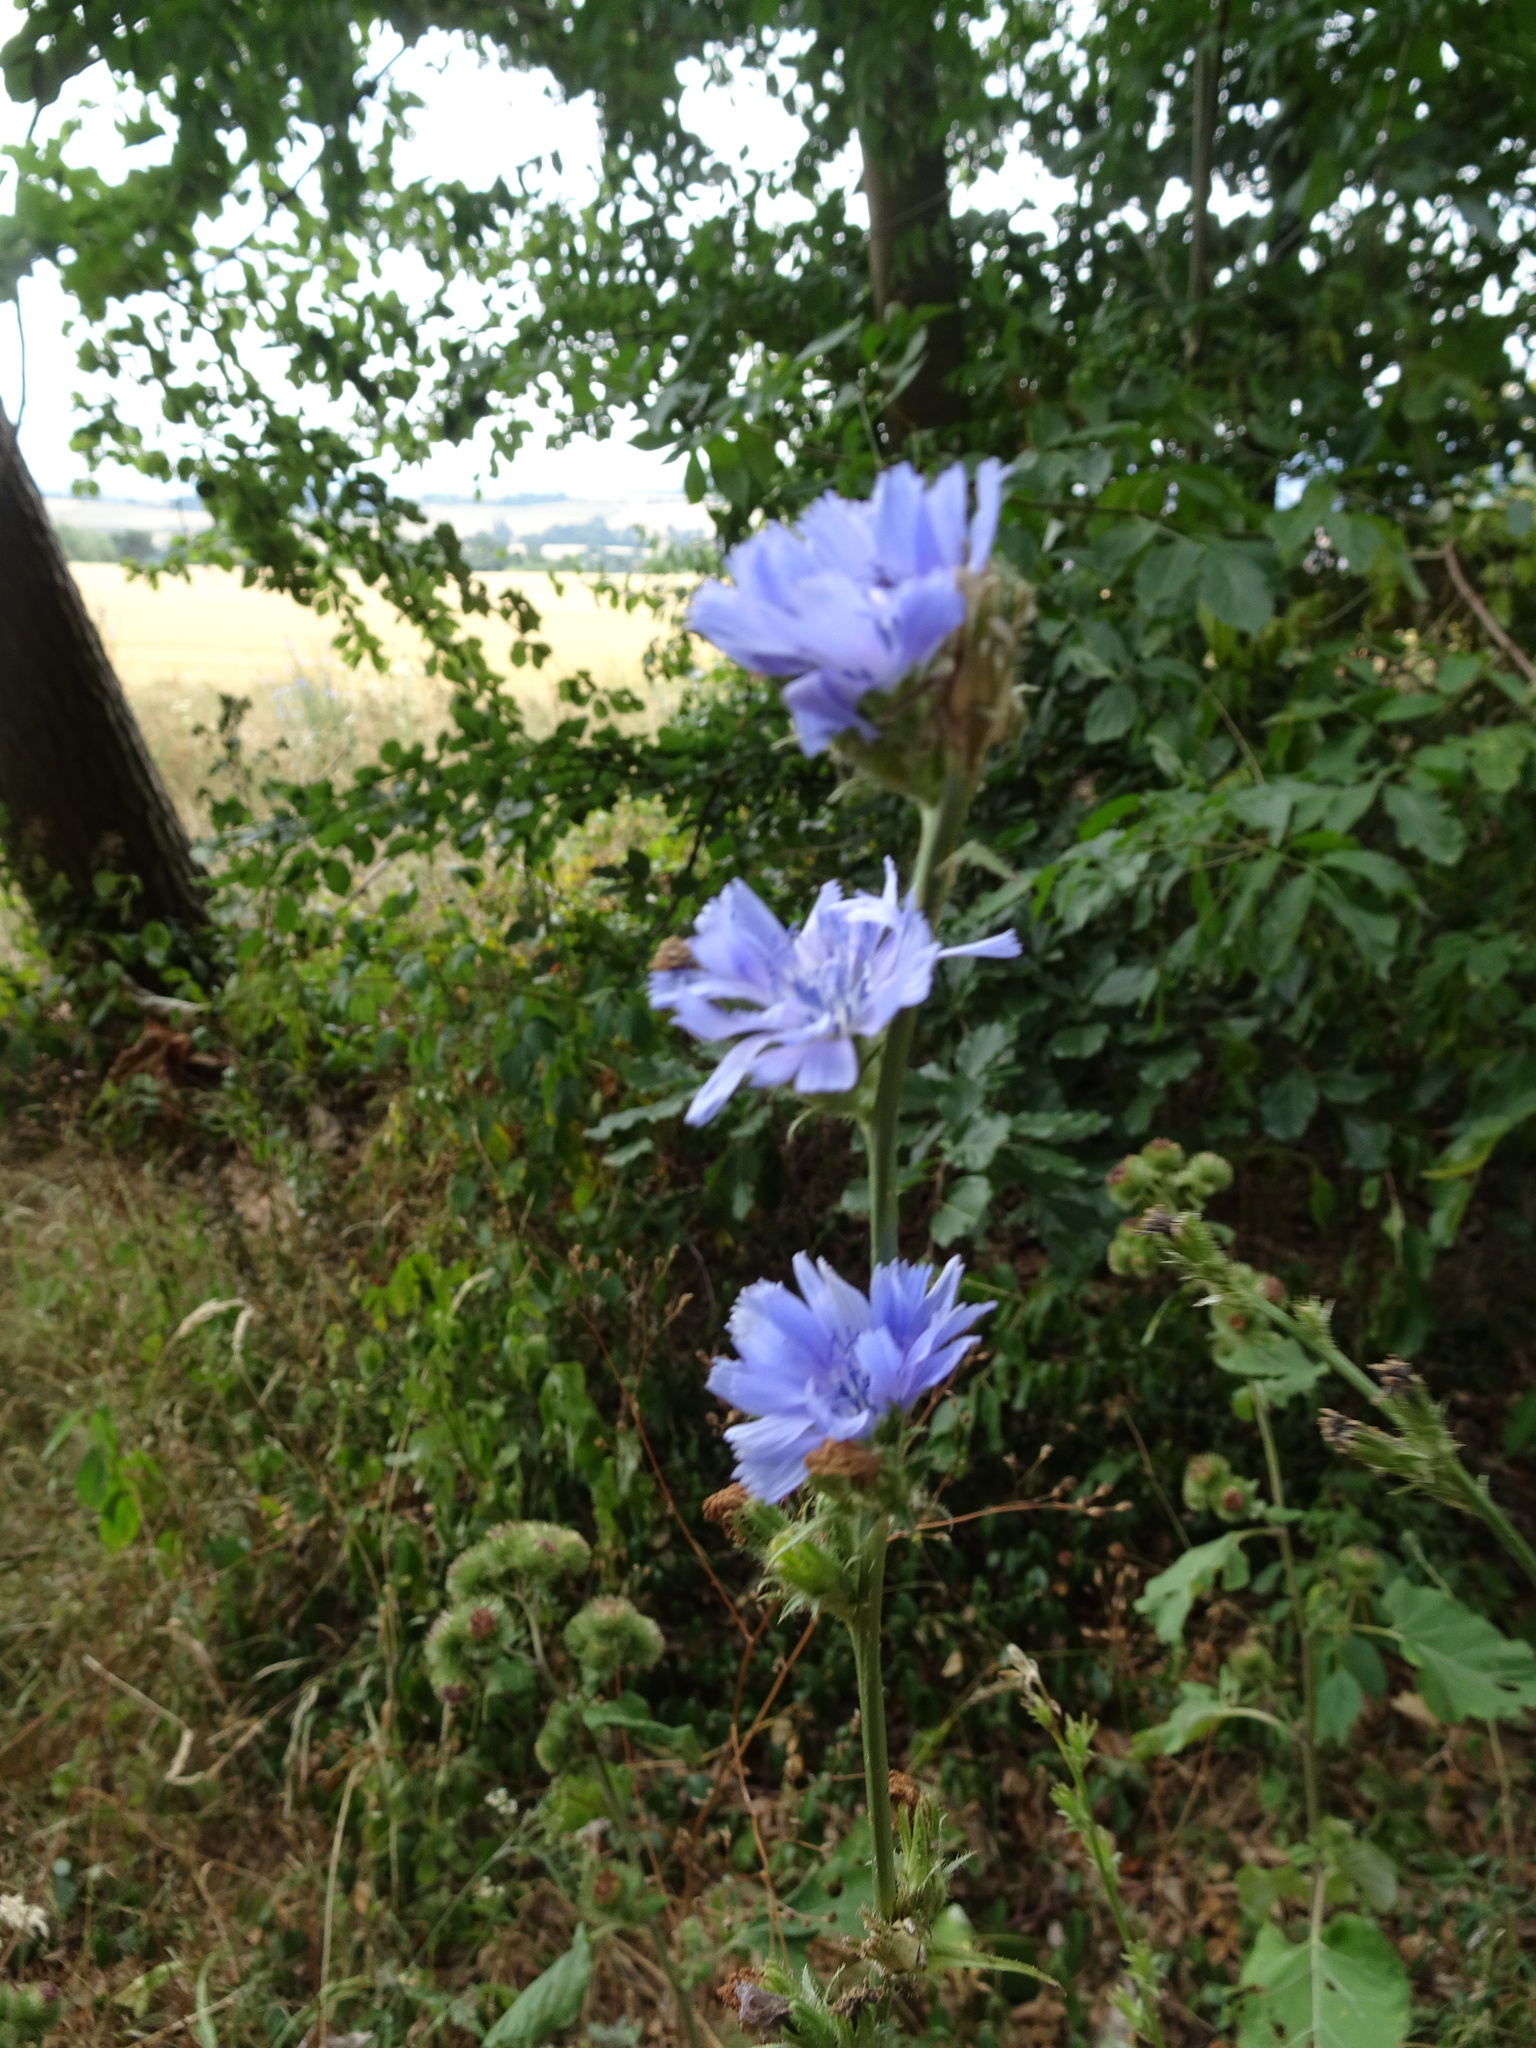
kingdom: Plantae
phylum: Tracheophyta
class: Magnoliopsida
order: Asterales
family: Asteraceae
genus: Cichorium
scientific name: Cichorium intybus
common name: Chicory
